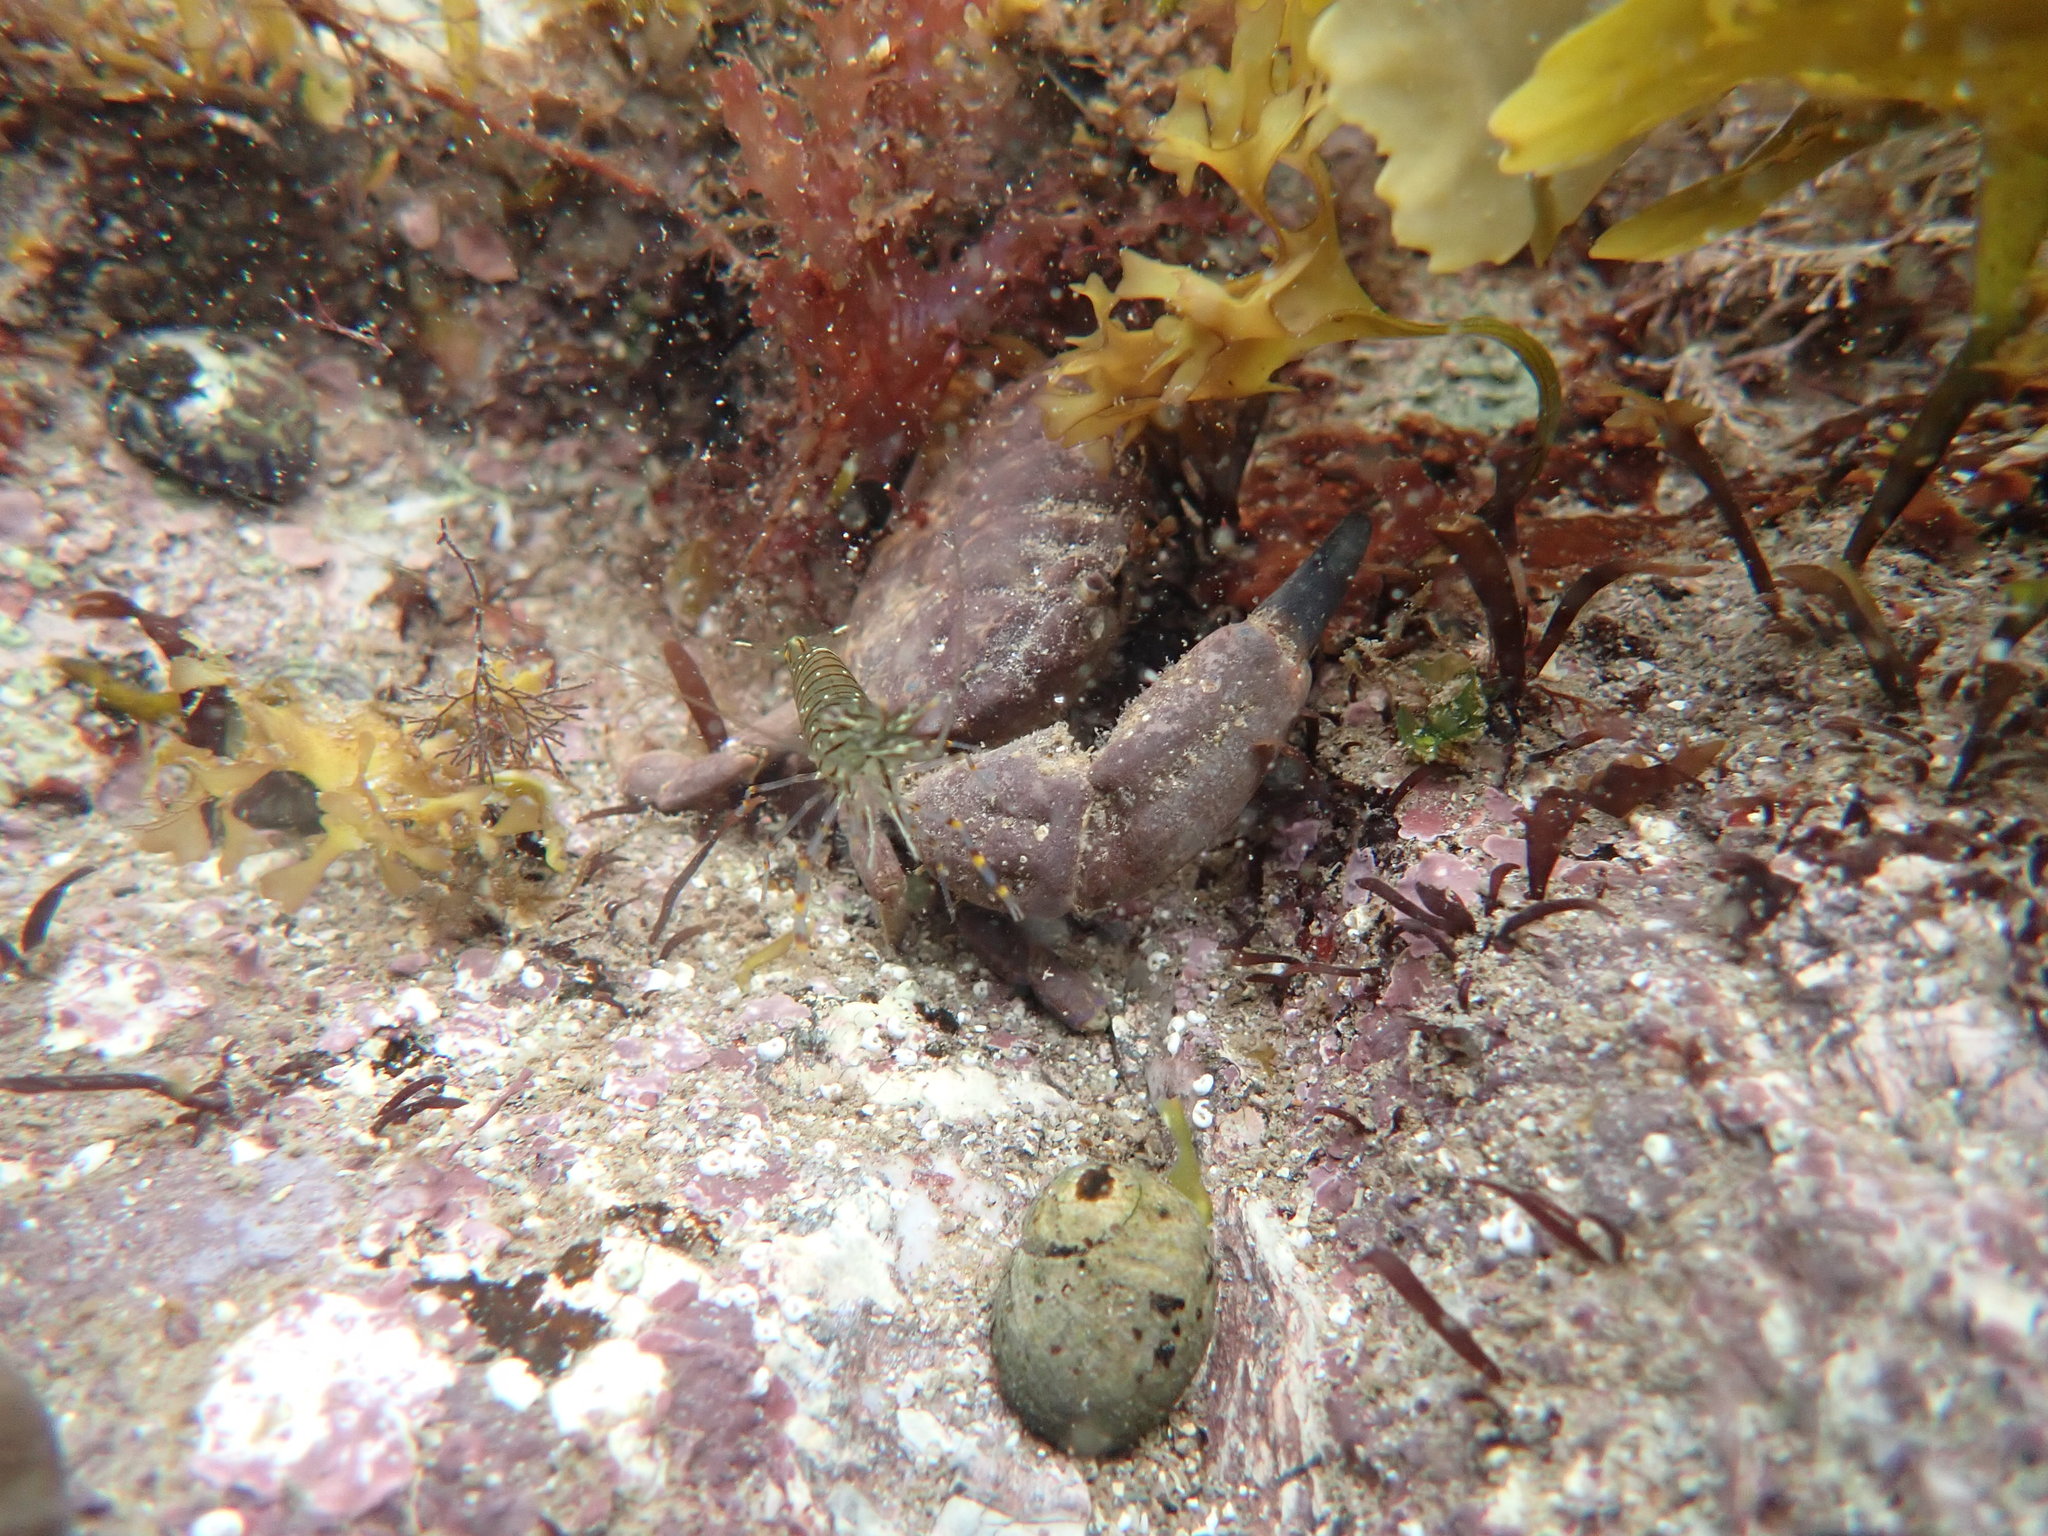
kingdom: Animalia
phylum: Arthropoda
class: Malacostraca
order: Decapoda
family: Xanthidae
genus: Xantho
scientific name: Xantho hydrophilus
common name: Montagu's crab
